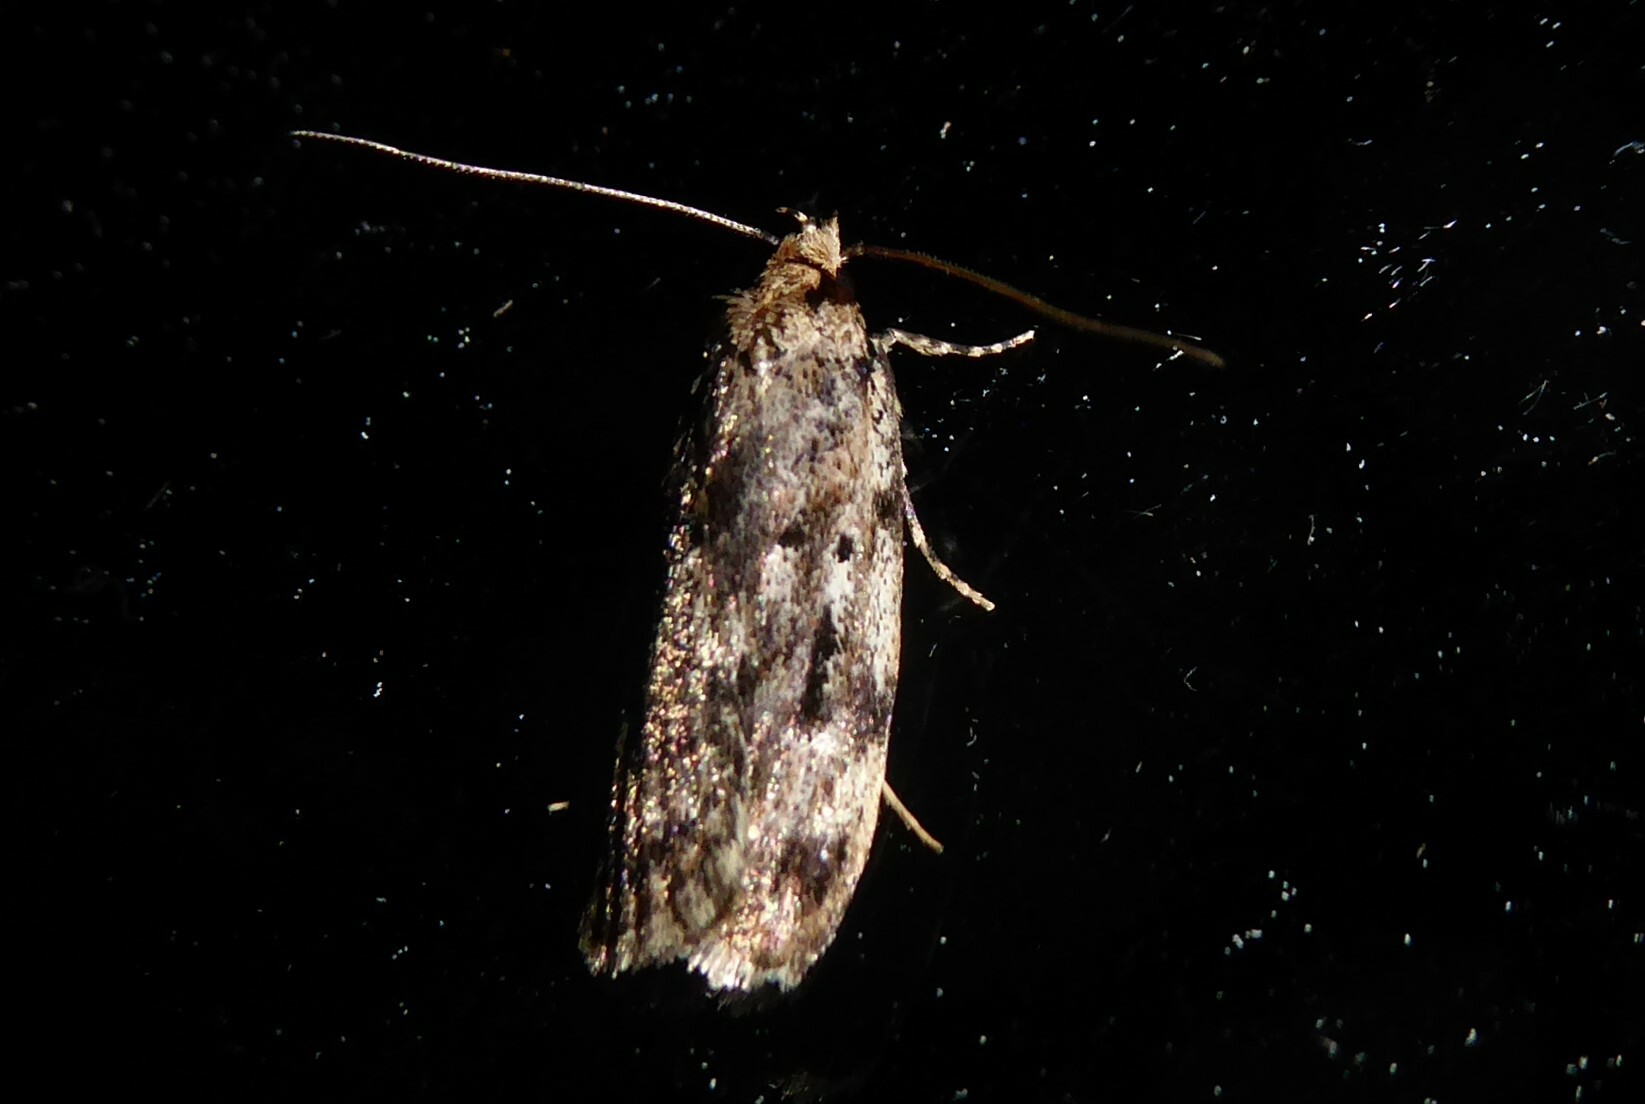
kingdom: Animalia
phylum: Arthropoda
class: Insecta
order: Lepidoptera
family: Oecophoridae
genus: Barea
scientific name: Barea exarcha
